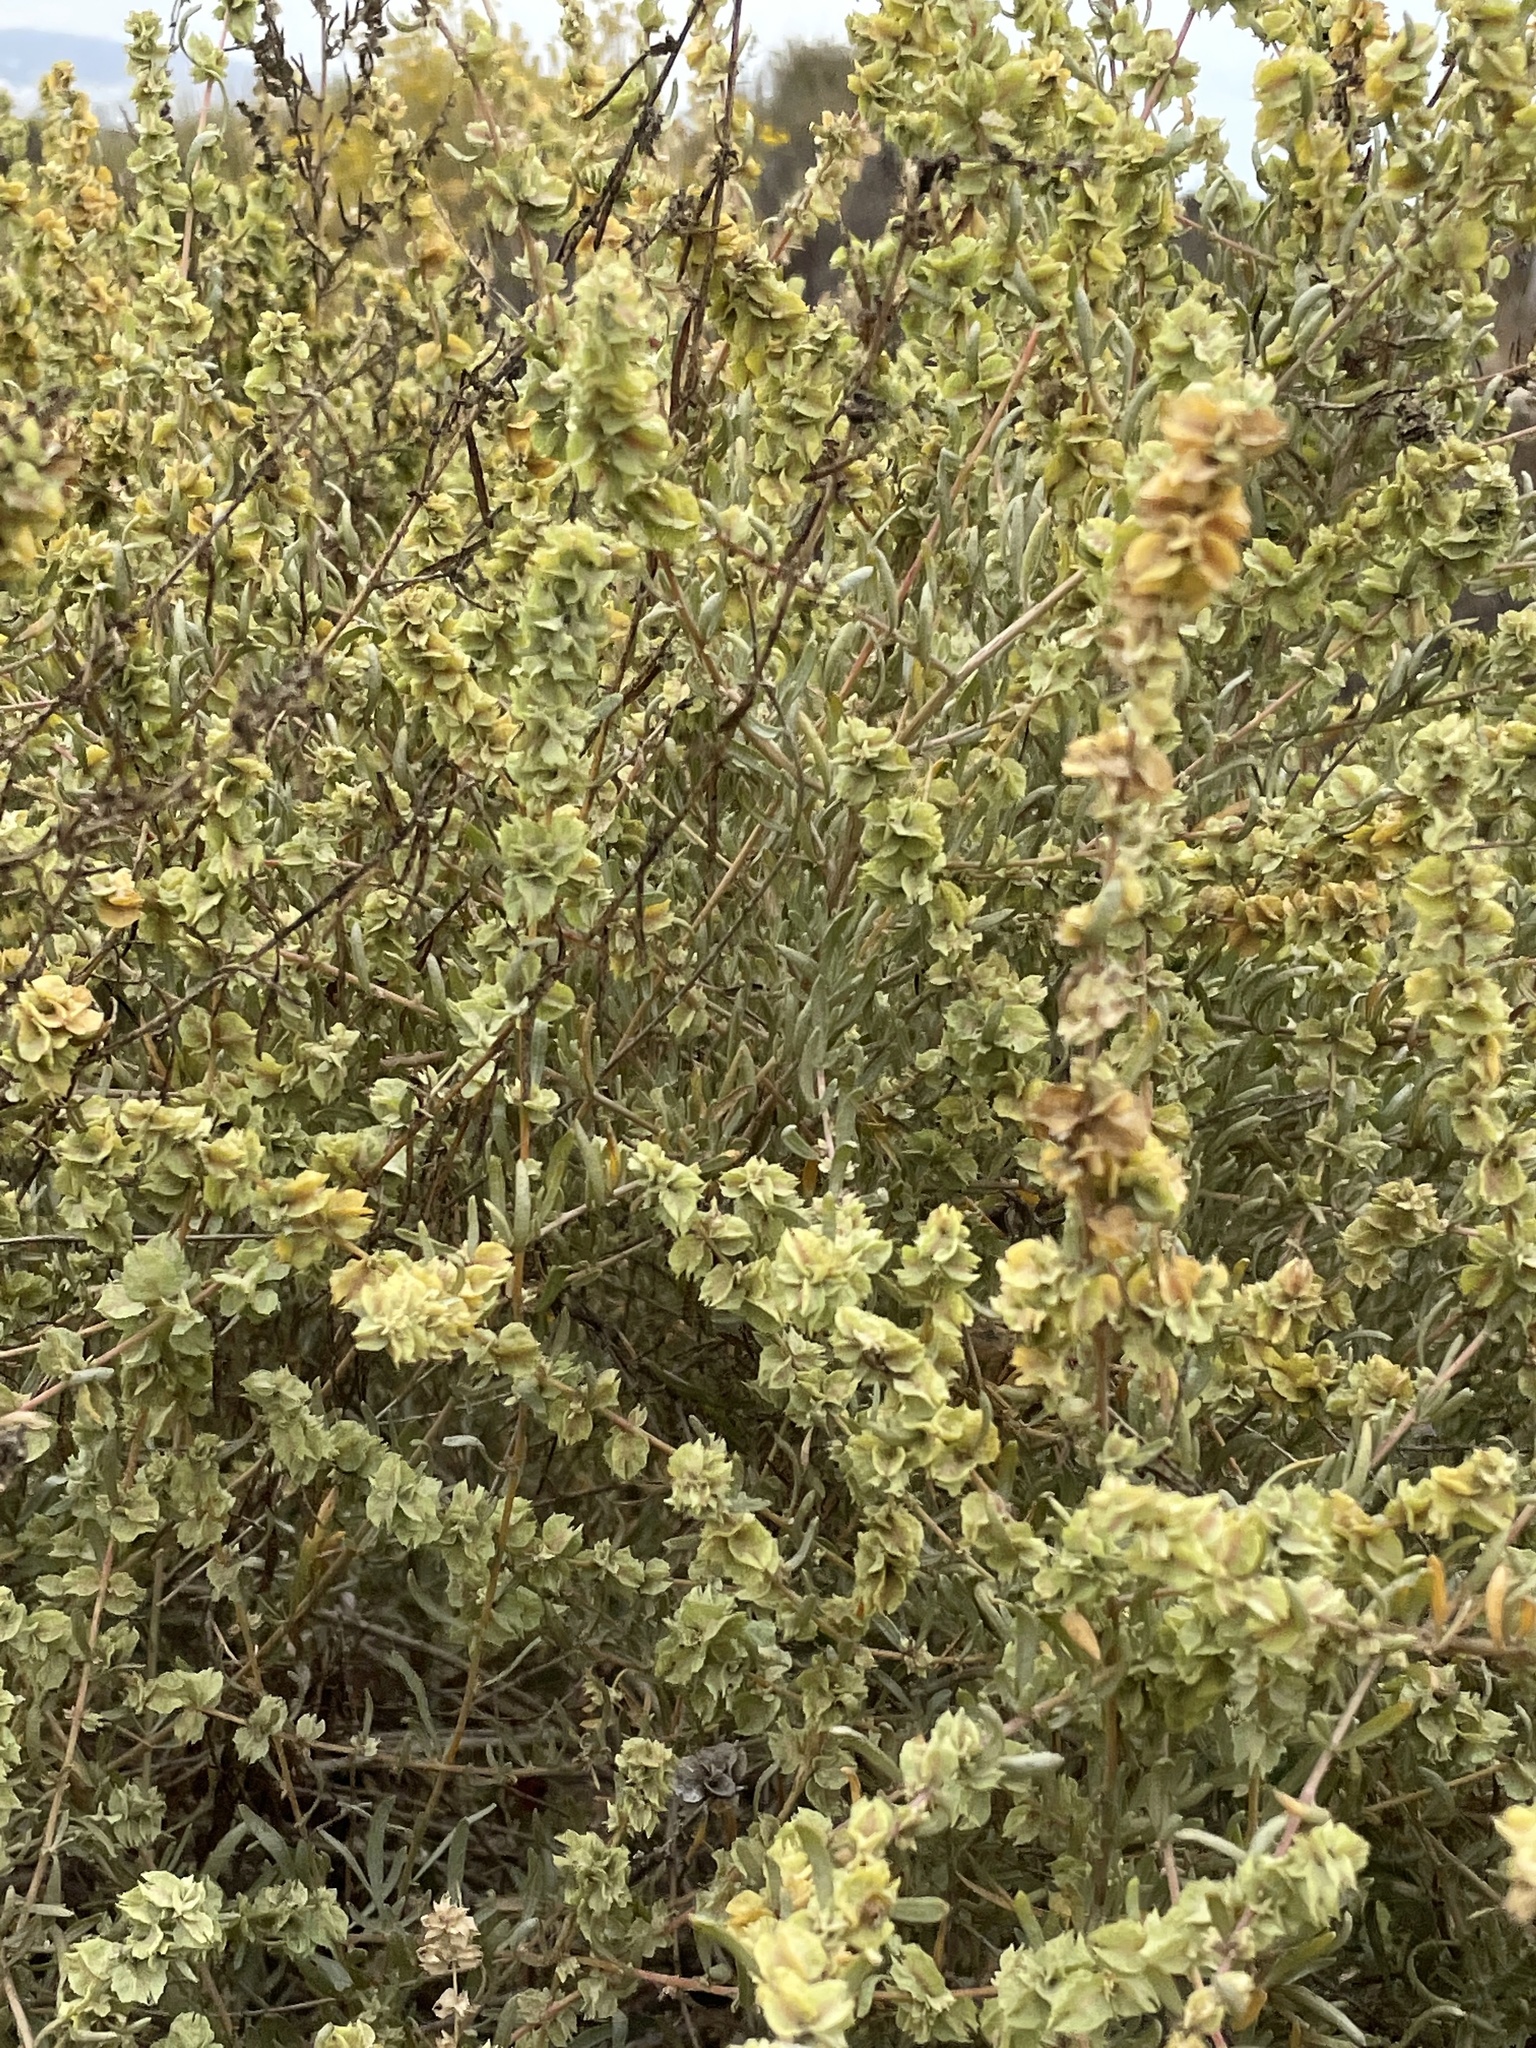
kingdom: Plantae
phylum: Tracheophyta
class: Magnoliopsida
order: Caryophyllales
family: Amaranthaceae
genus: Atriplex
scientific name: Atriplex canescens
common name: Four-wing saltbush
